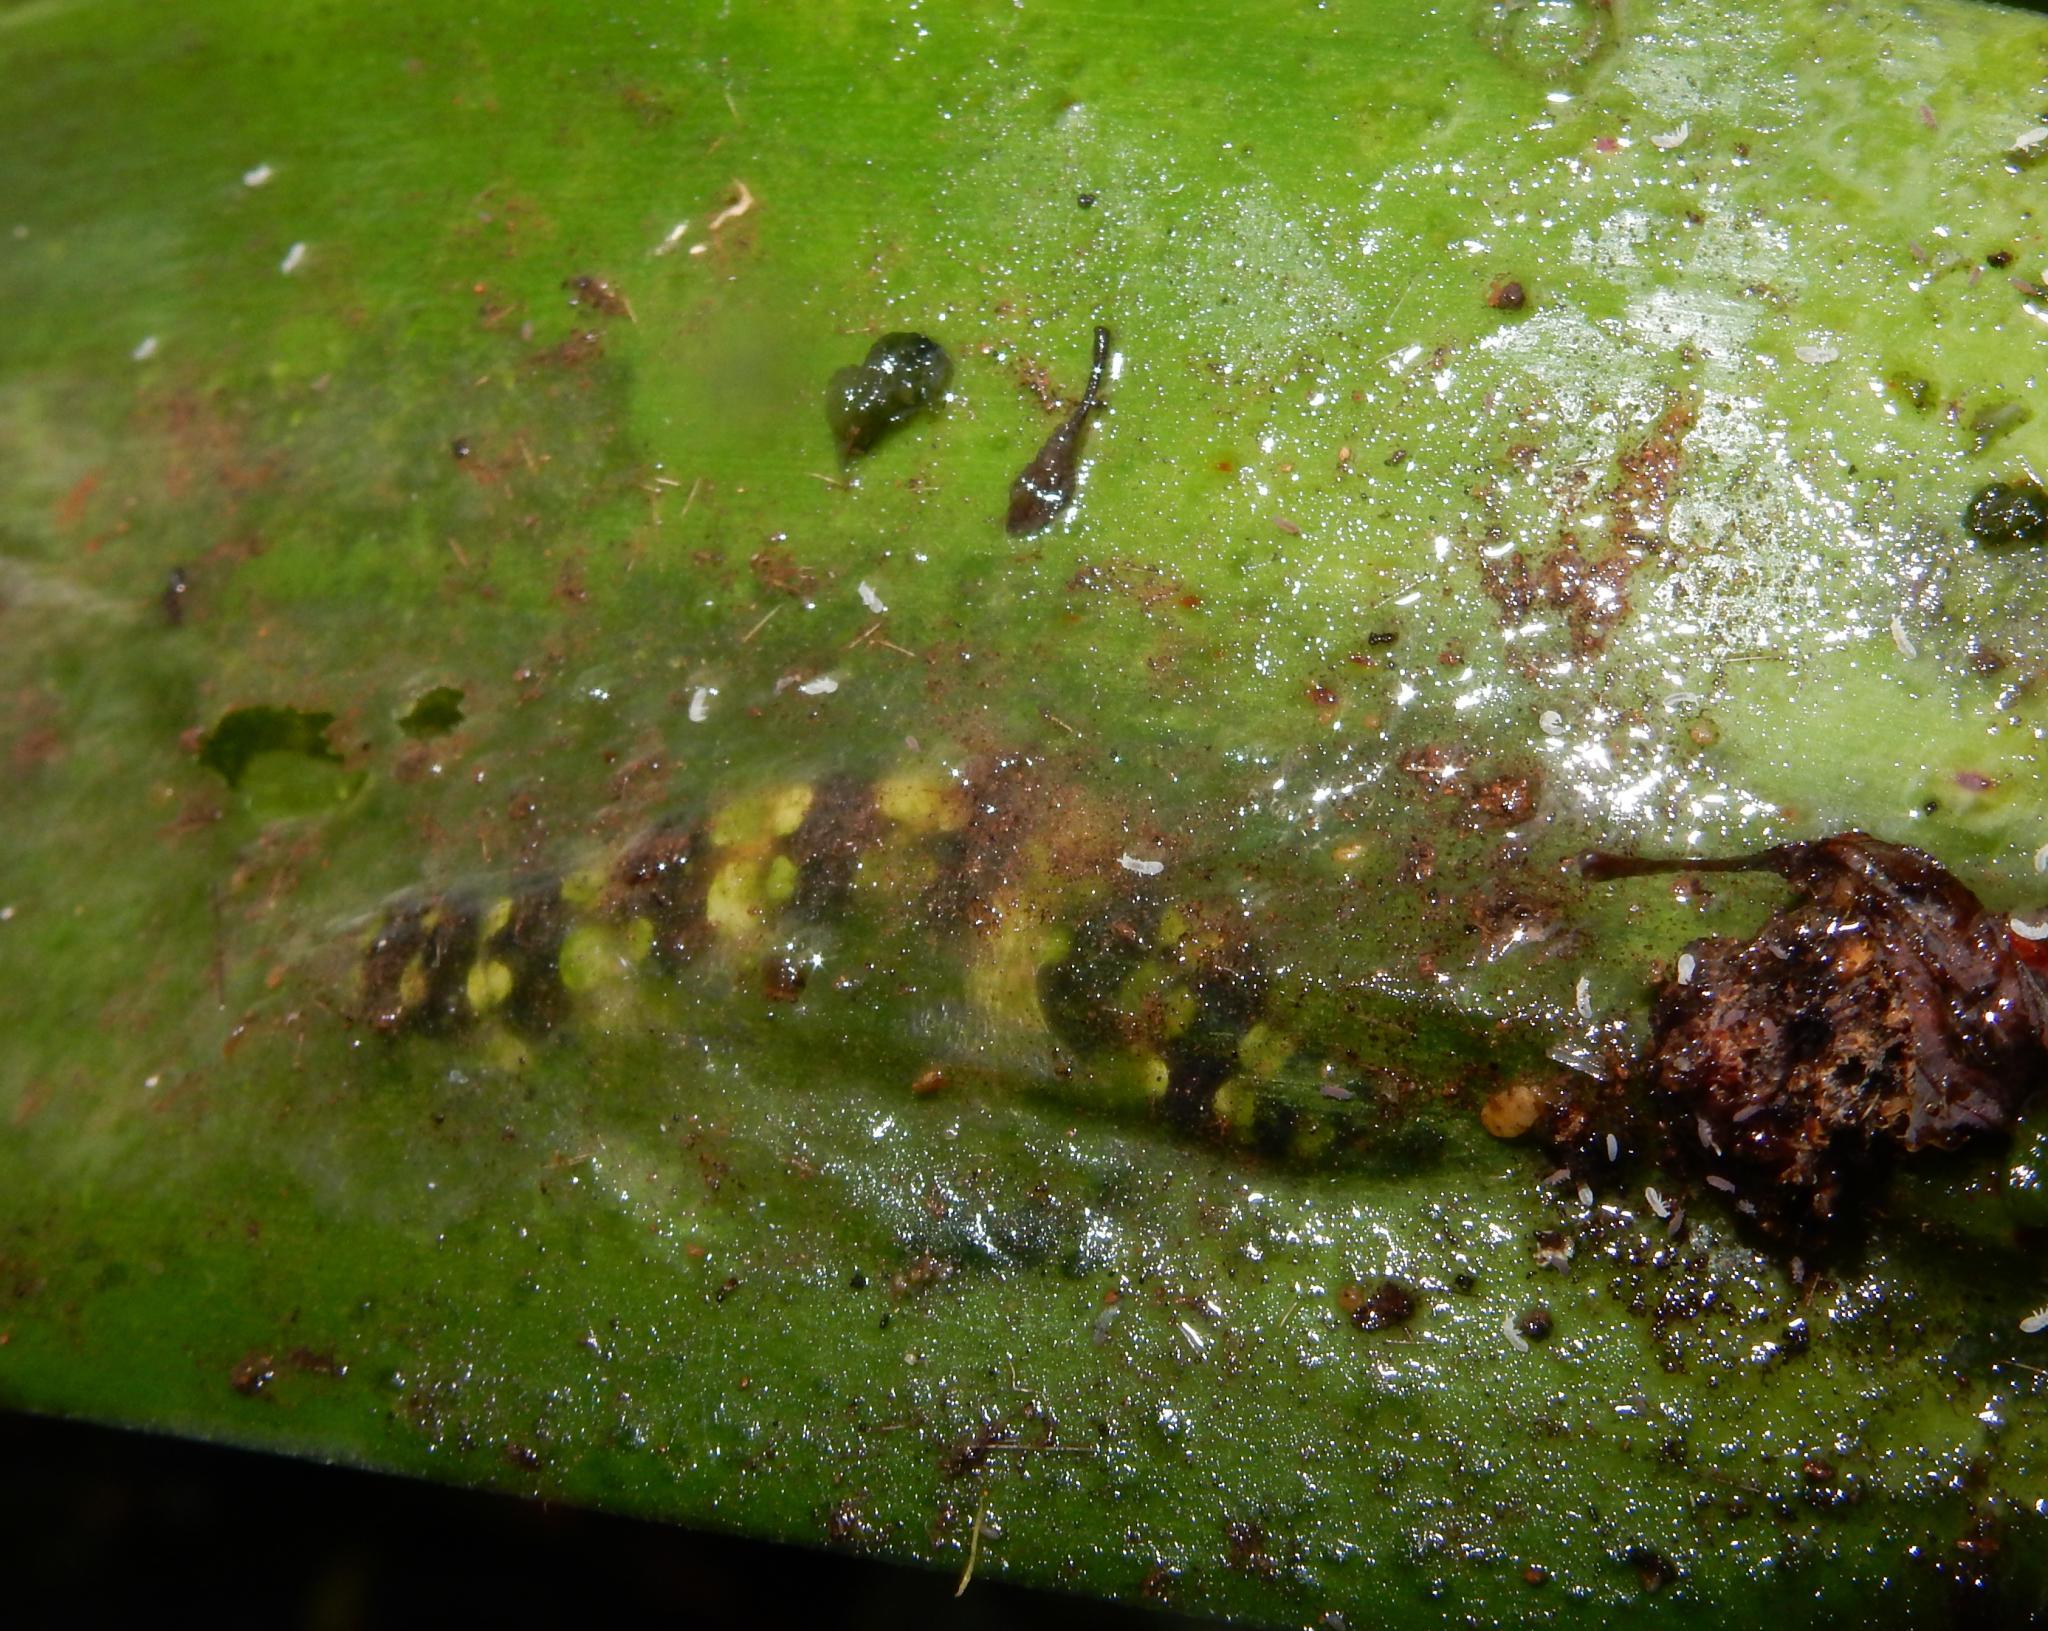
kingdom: Animalia
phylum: Arthropoda
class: Insecta
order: Lepidoptera
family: Noctuidae
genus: Brithys
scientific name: Brithys crini
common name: Kew arches
